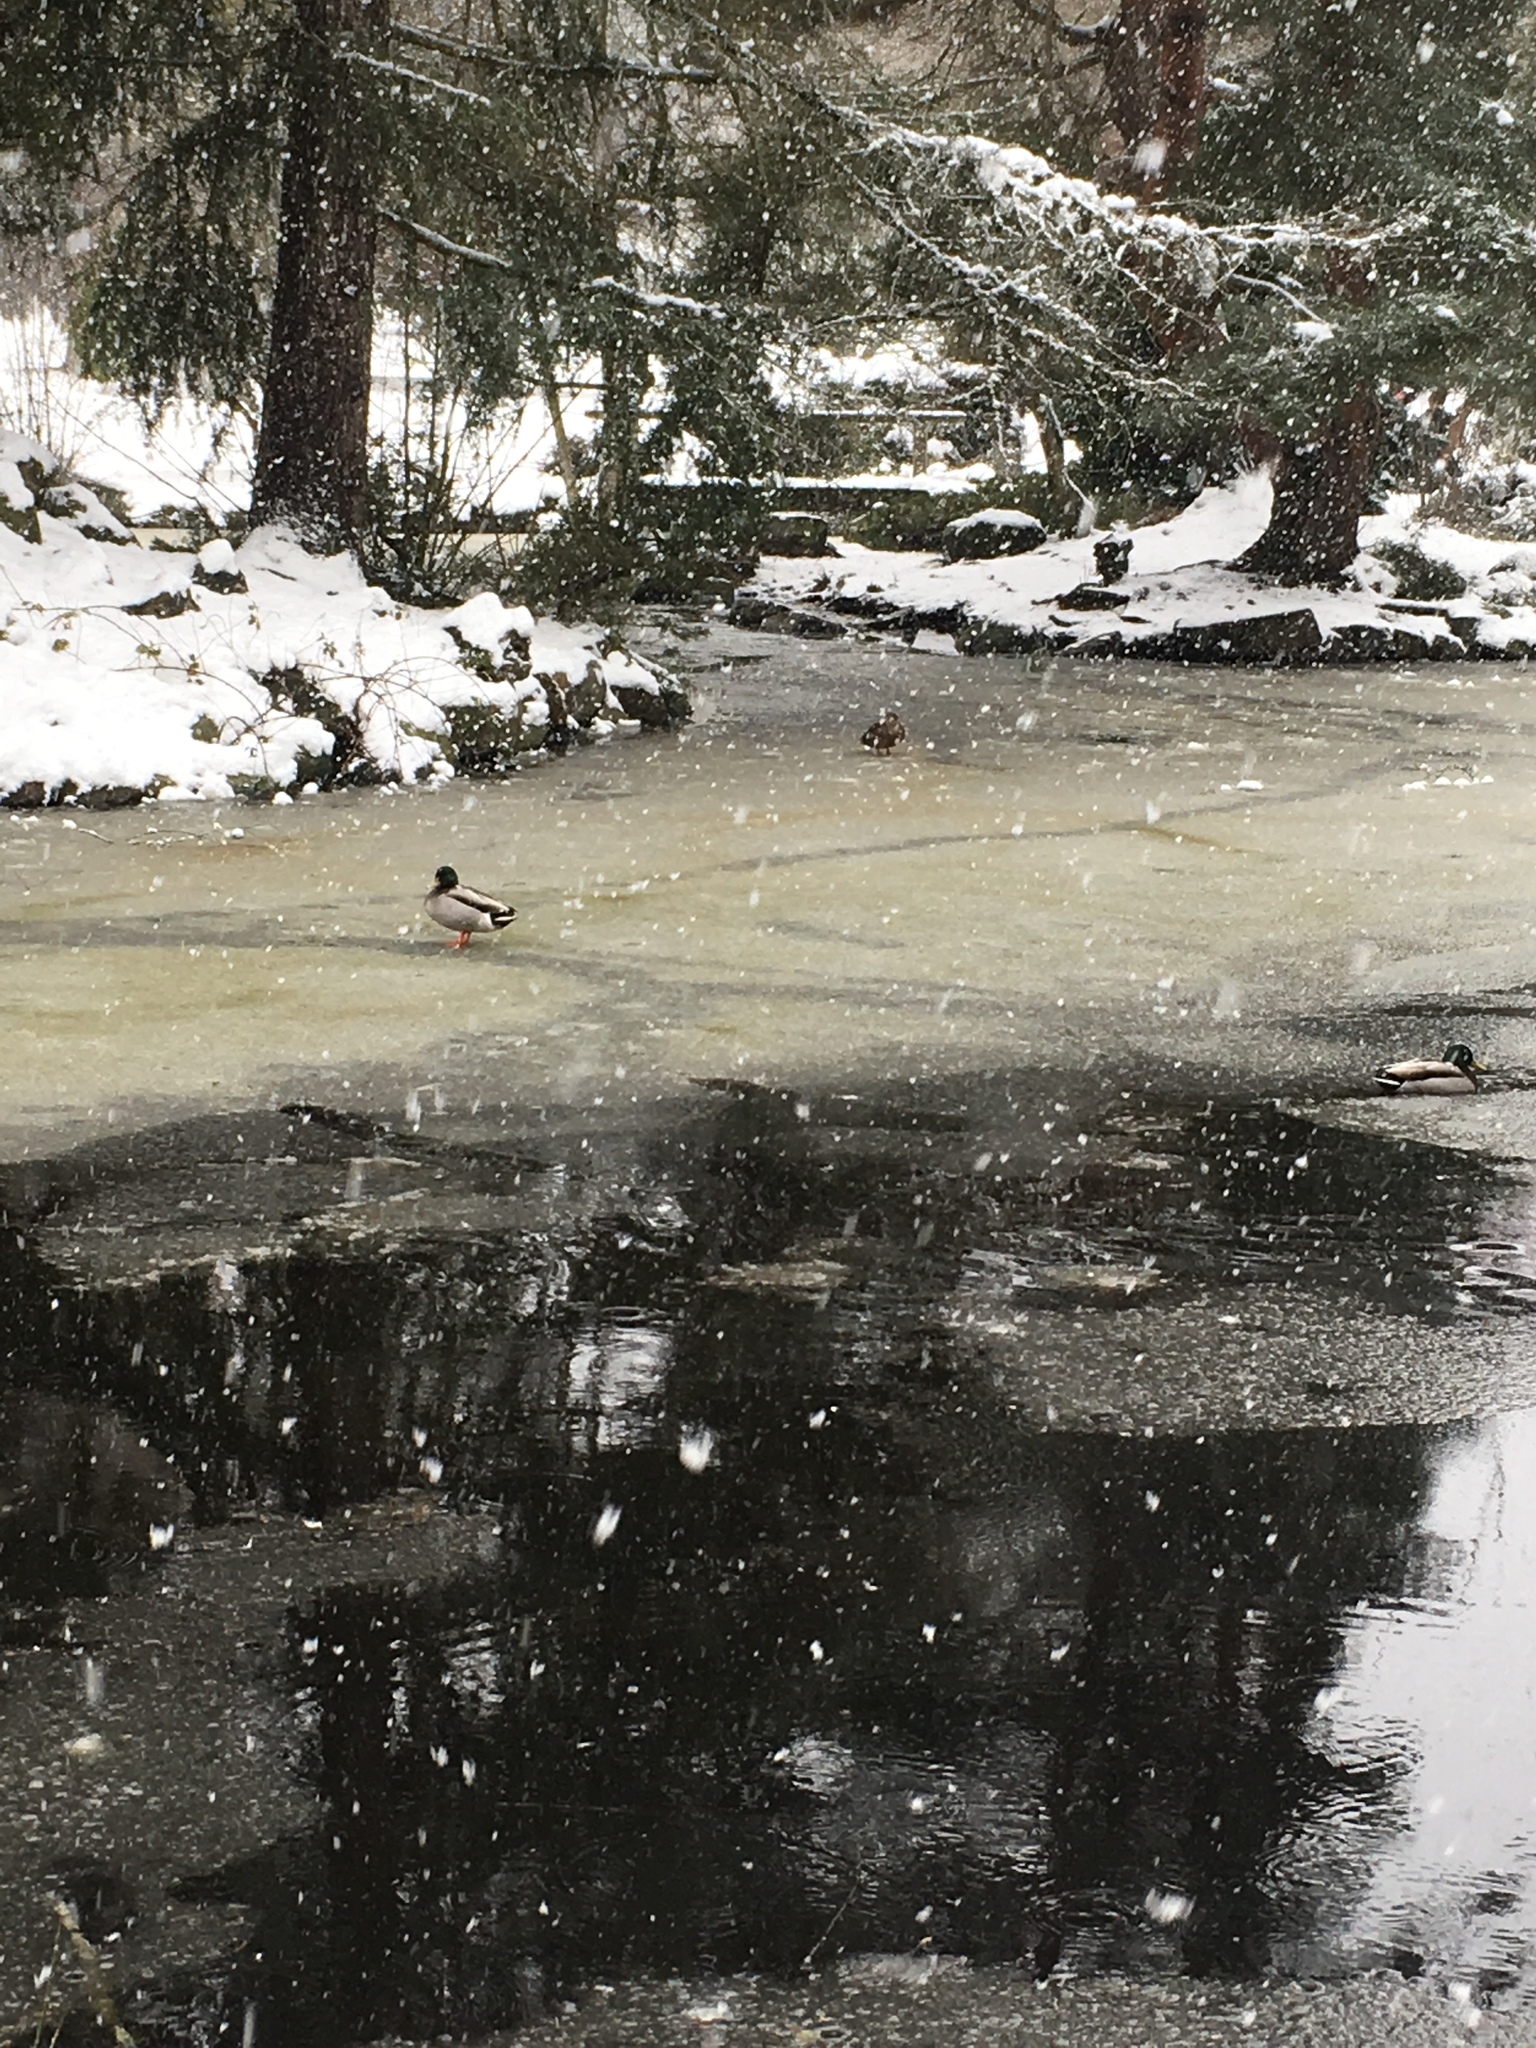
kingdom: Animalia
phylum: Chordata
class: Aves
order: Anseriformes
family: Anatidae
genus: Anas
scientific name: Anas platyrhynchos
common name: Mallard
